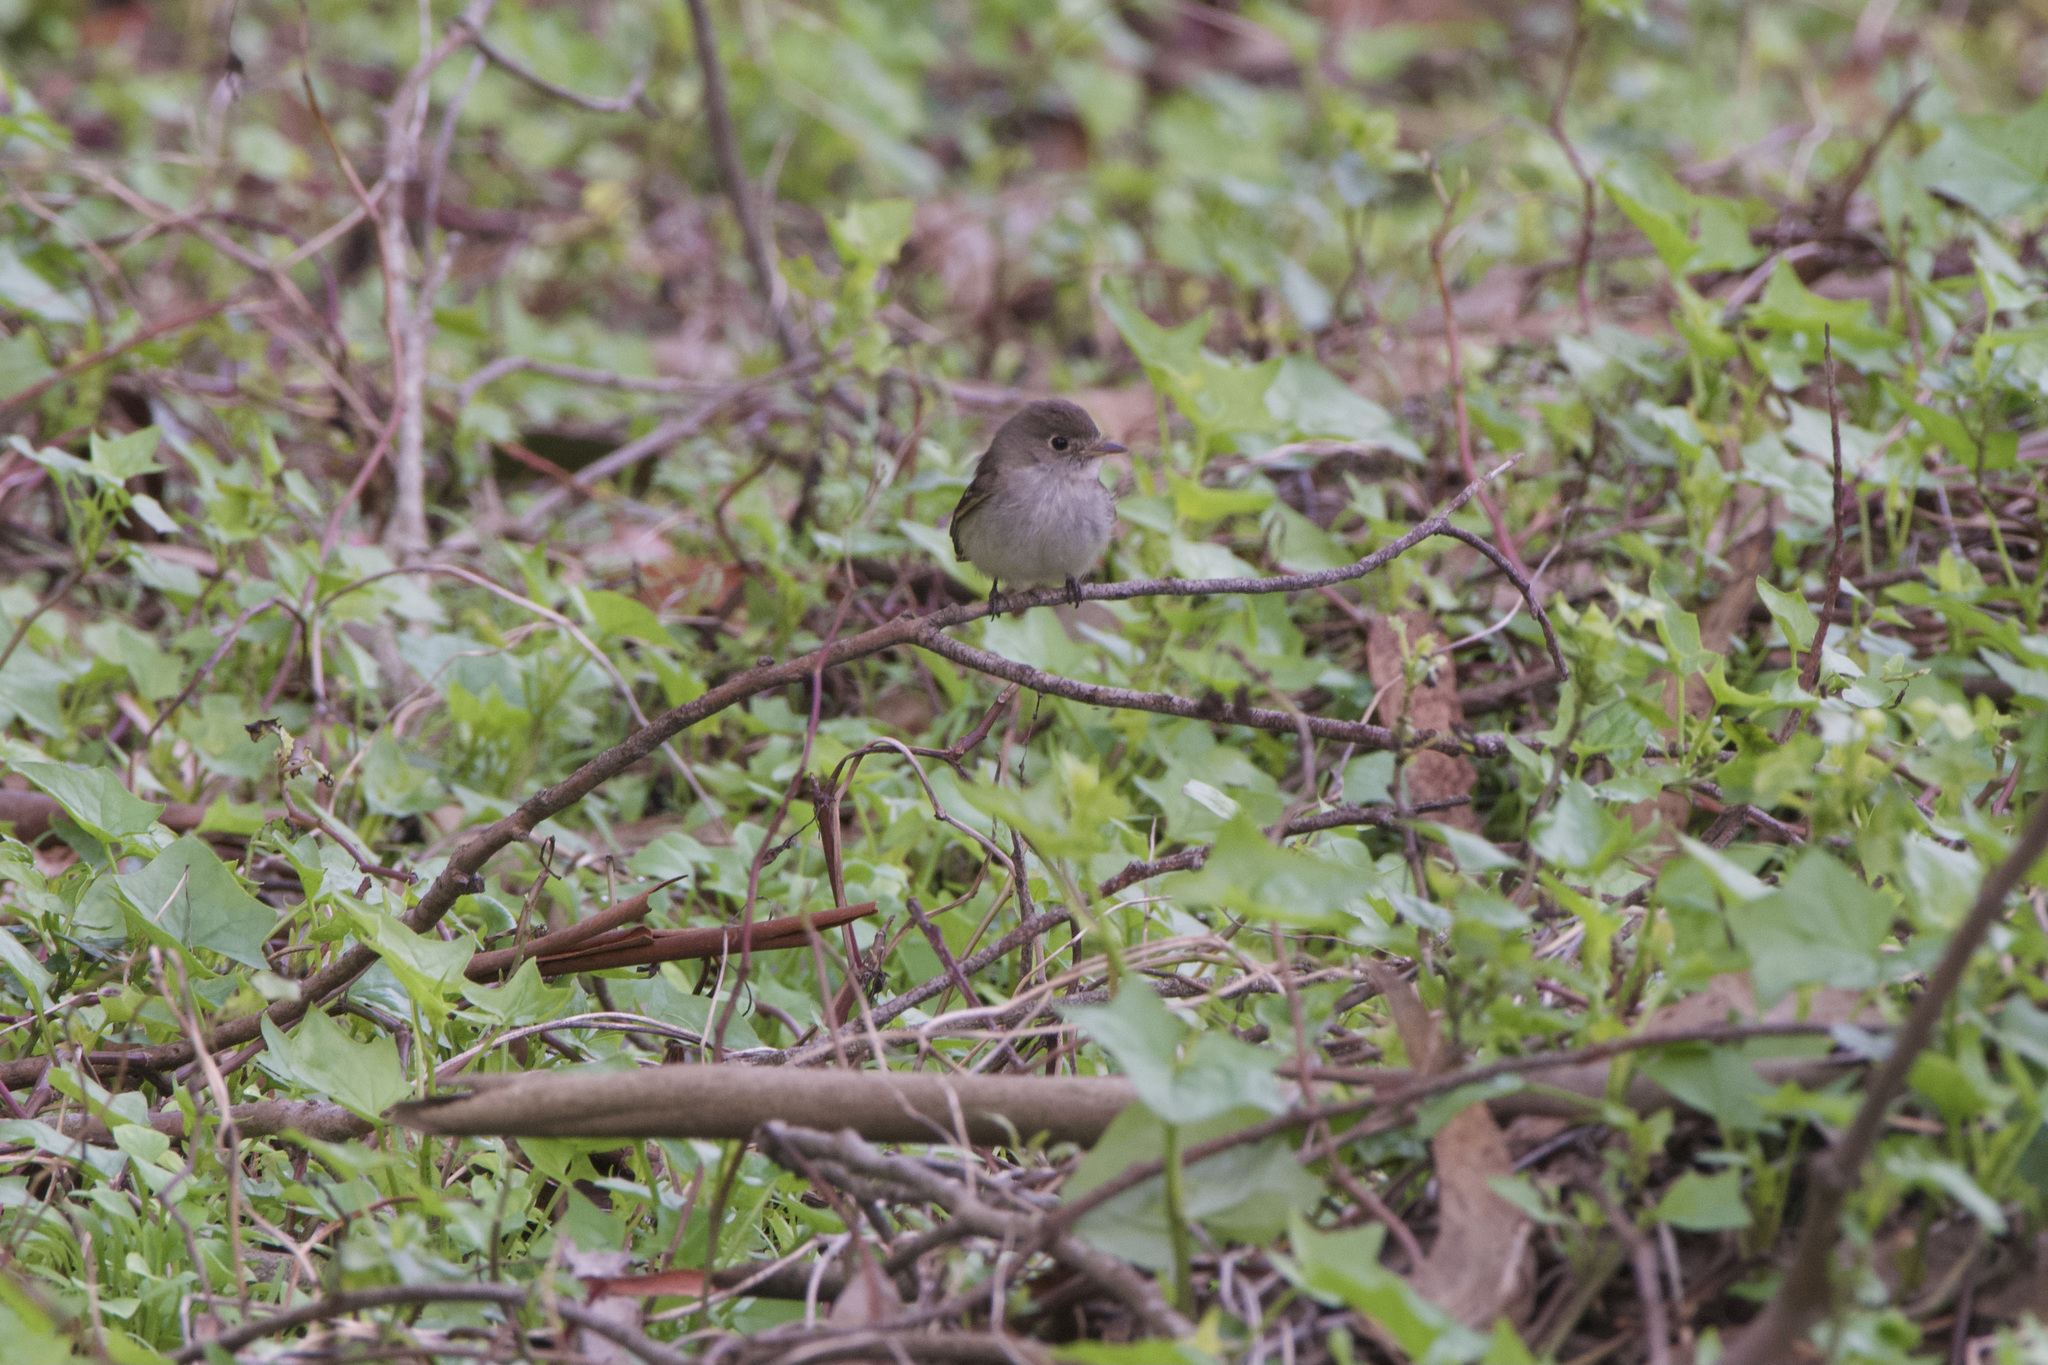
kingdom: Animalia
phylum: Chordata
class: Aves
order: Passeriformes
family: Tyrannidae
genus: Empidonax
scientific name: Empidonax minimus
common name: Least flycatcher
